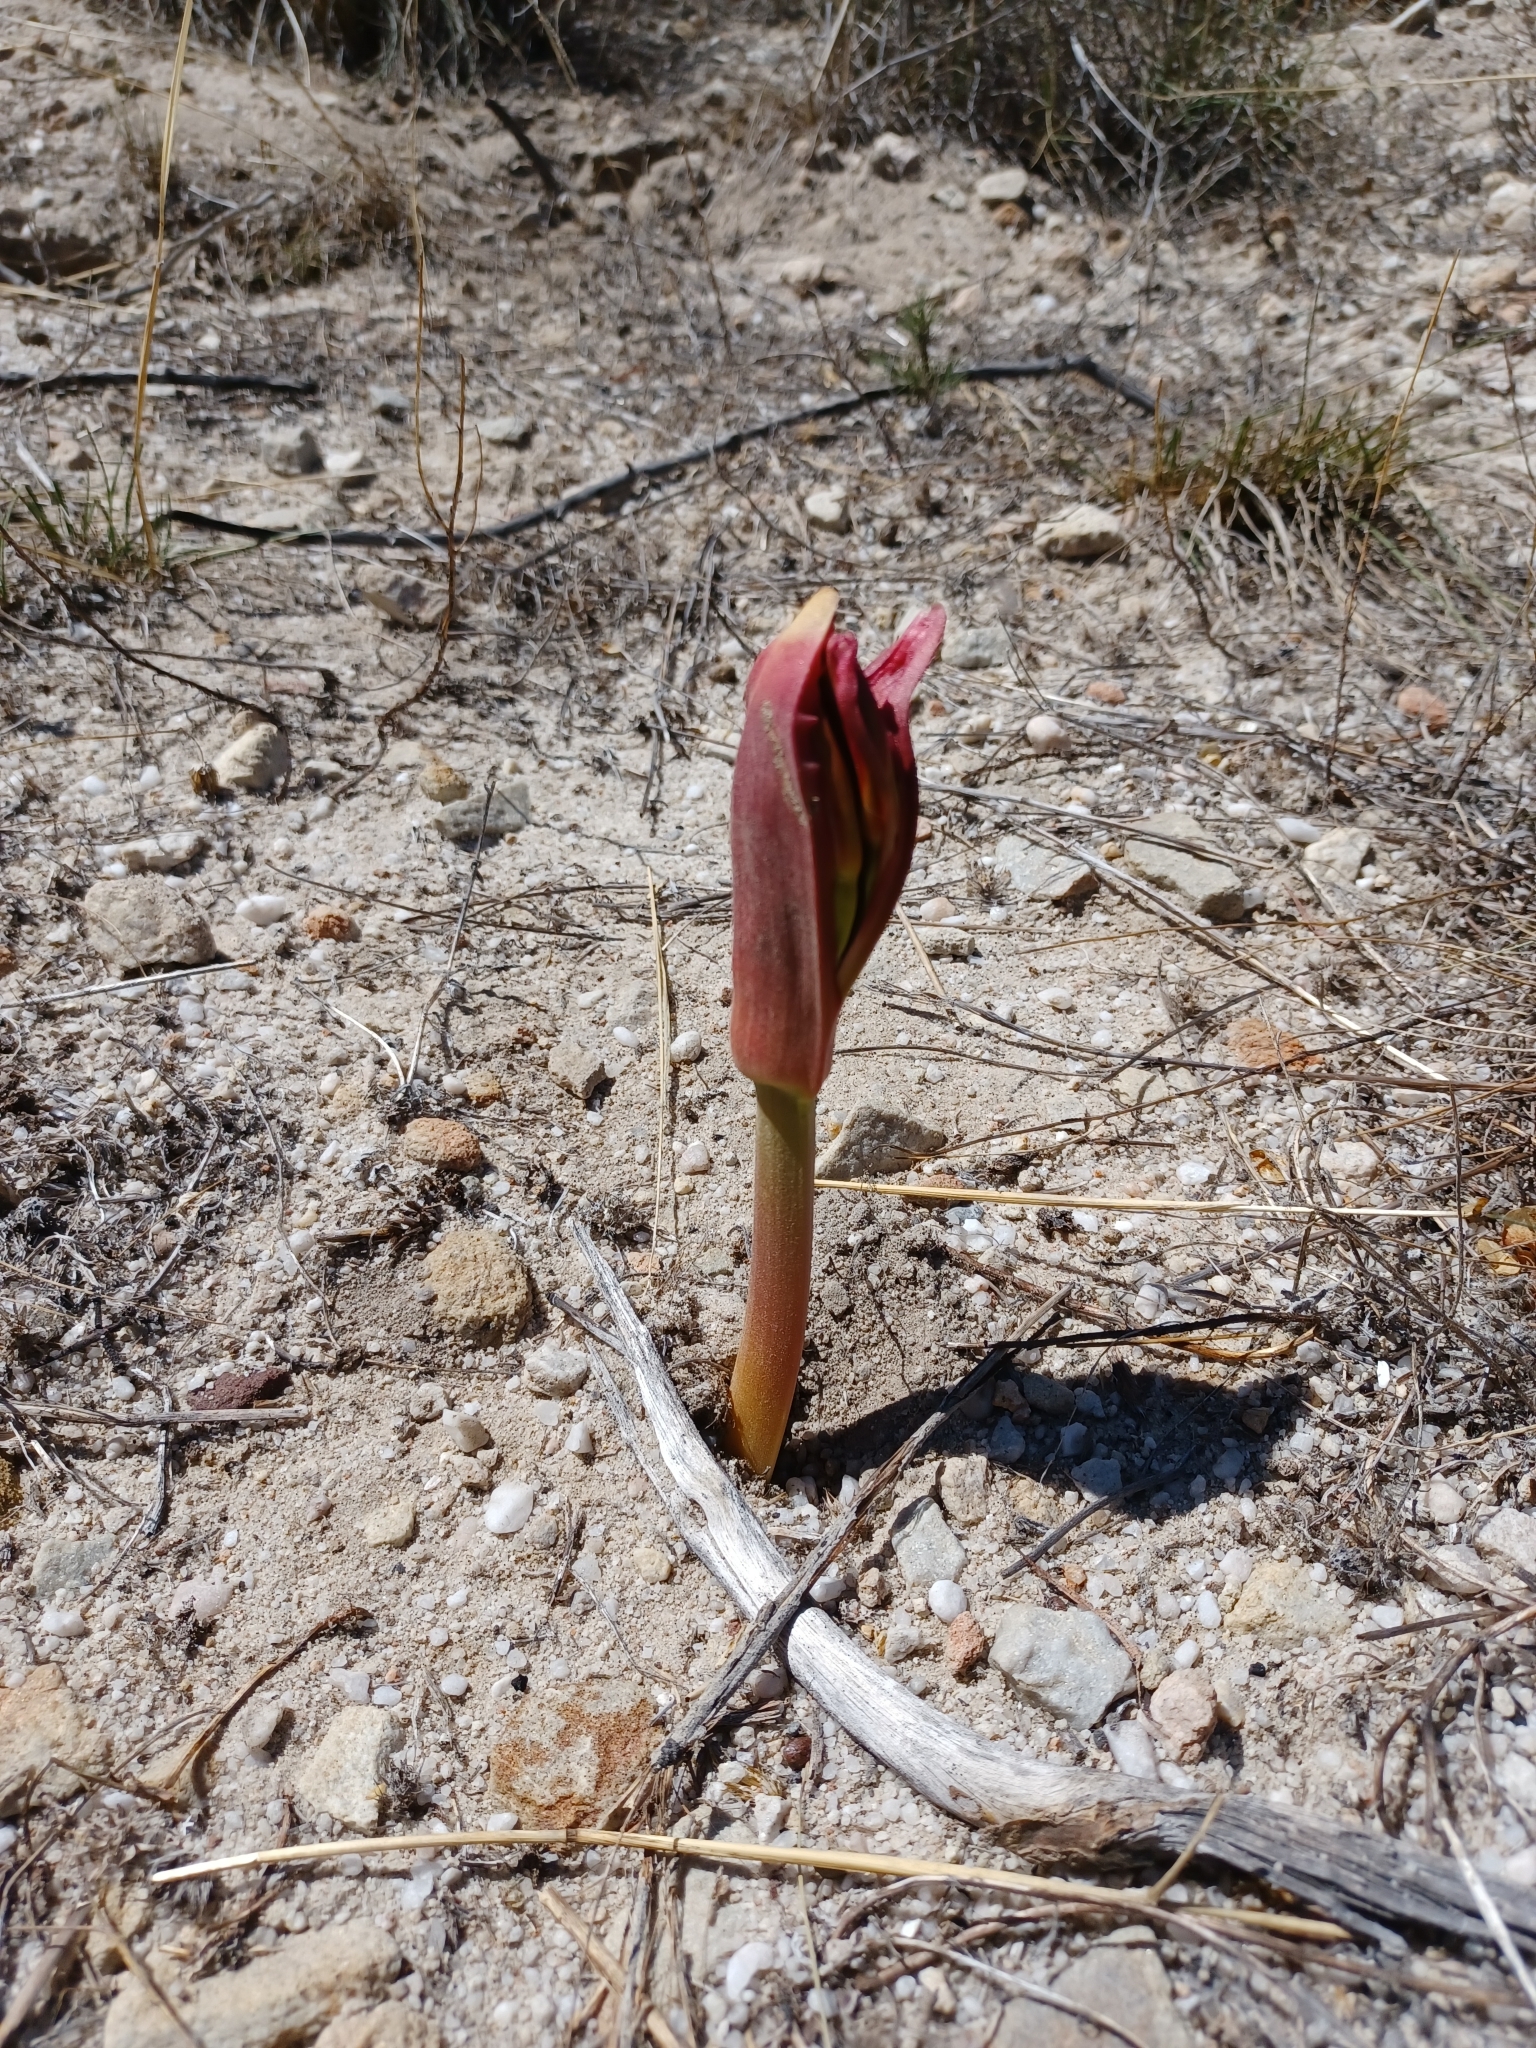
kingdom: Plantae
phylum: Tracheophyta
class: Liliopsida
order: Asparagales
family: Amaryllidaceae
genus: Brunsvigia
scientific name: Brunsvigia orientalis
